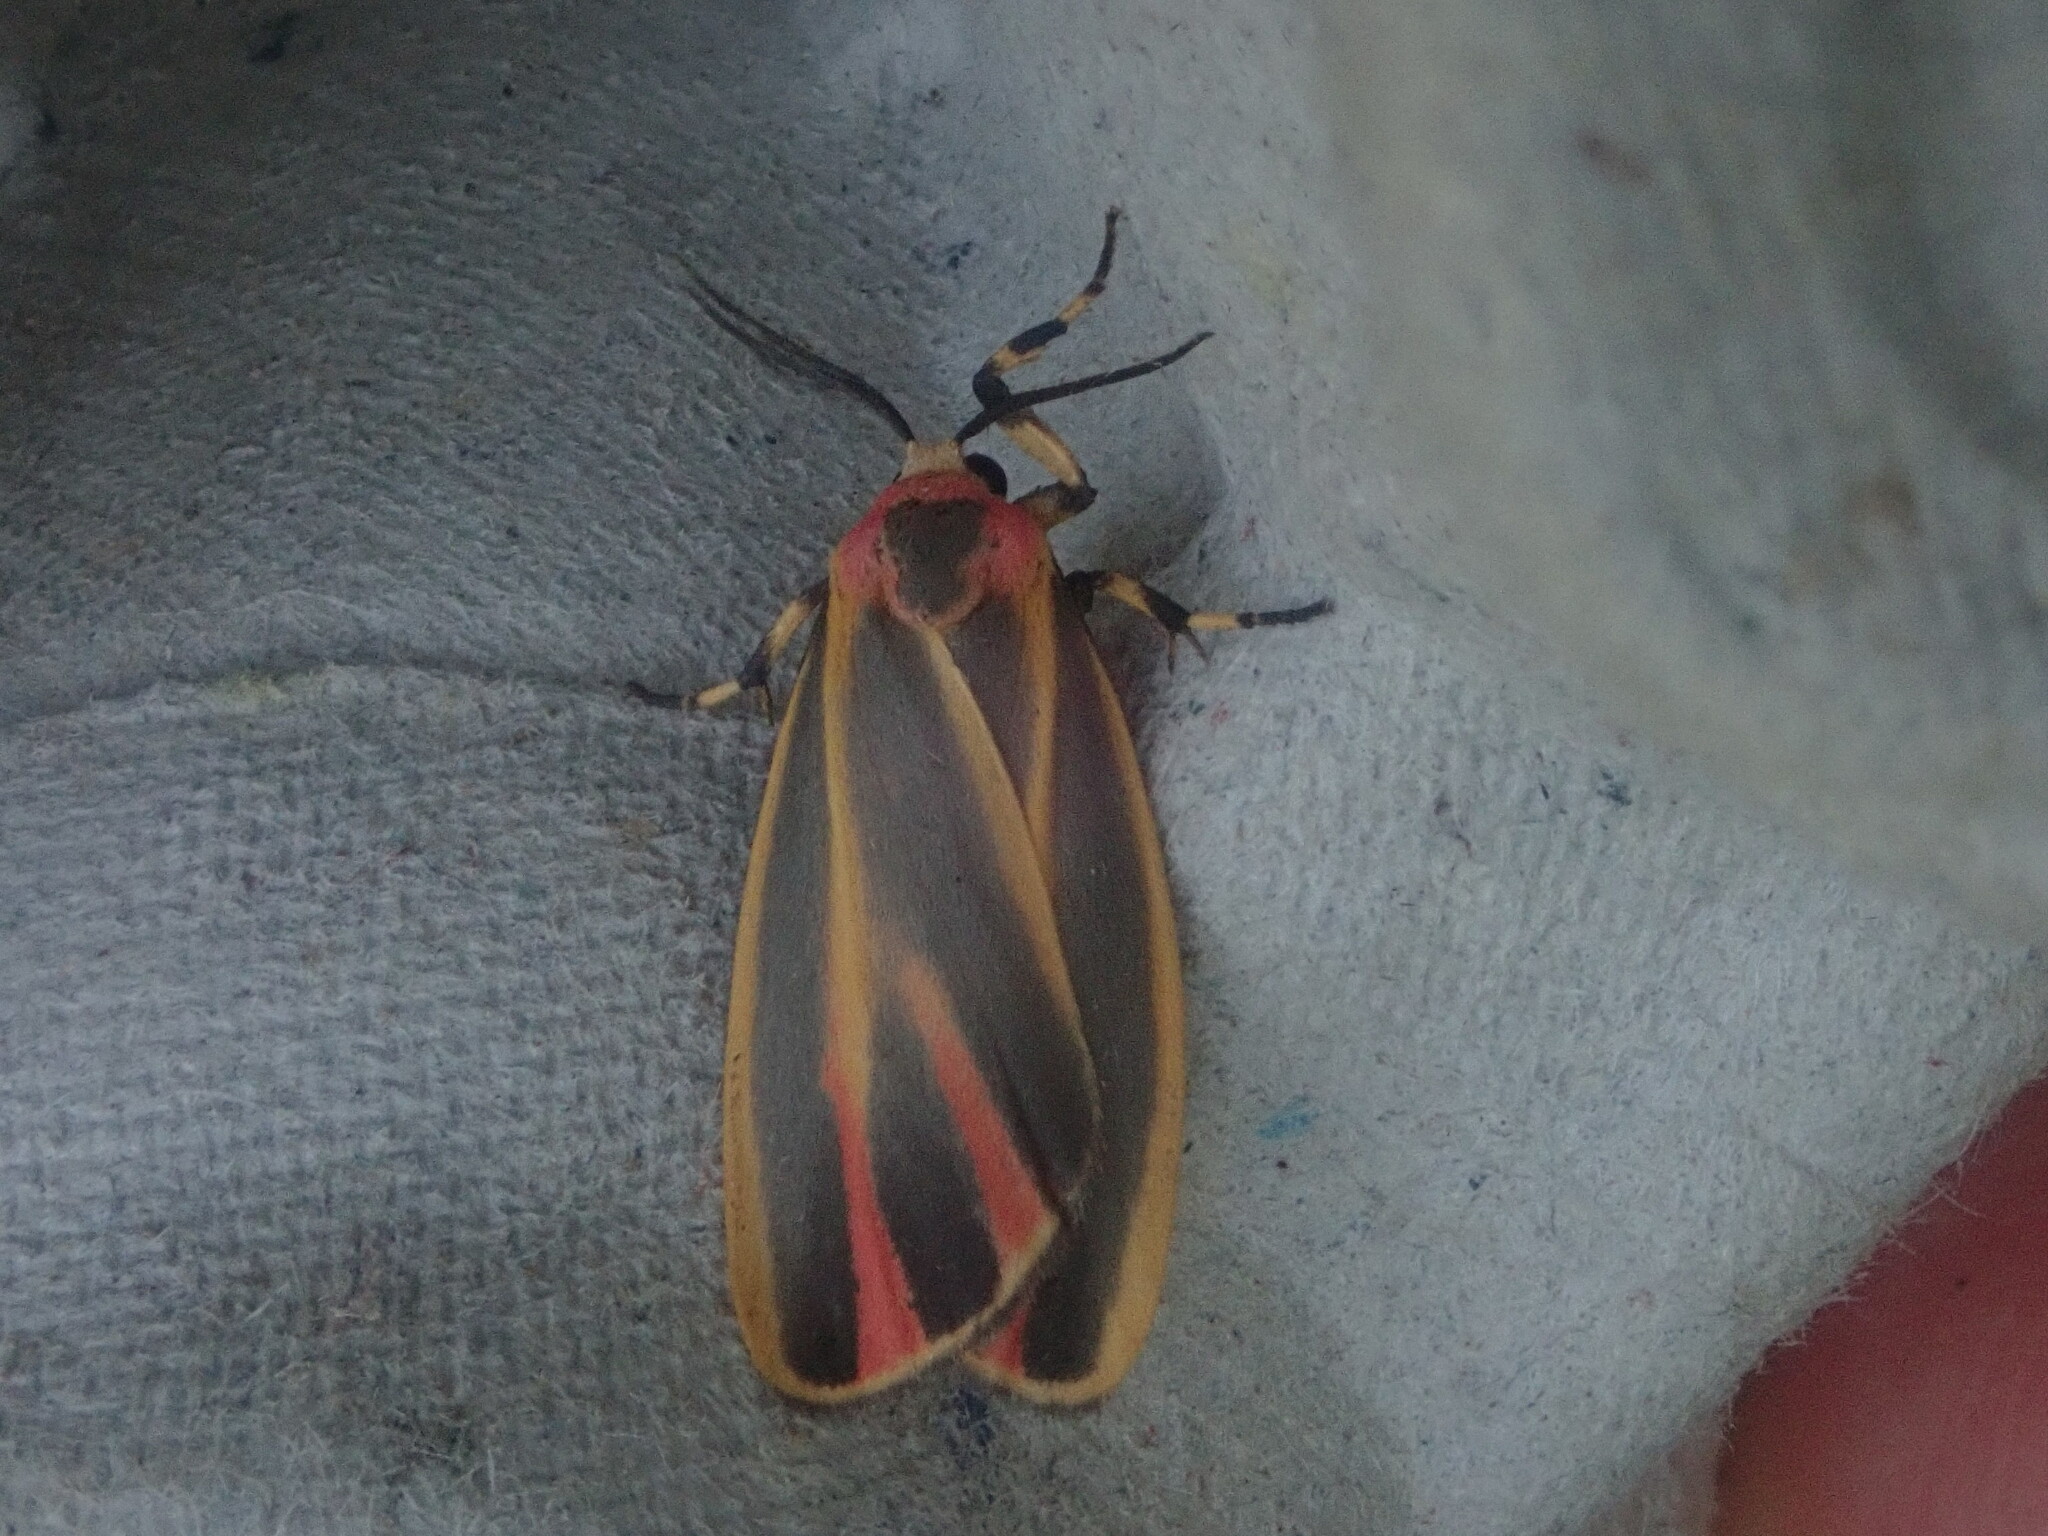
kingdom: Animalia
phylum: Arthropoda
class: Insecta
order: Lepidoptera
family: Erebidae
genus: Hypoprepia
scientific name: Hypoprepia fucosa
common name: Painted lichen moth
